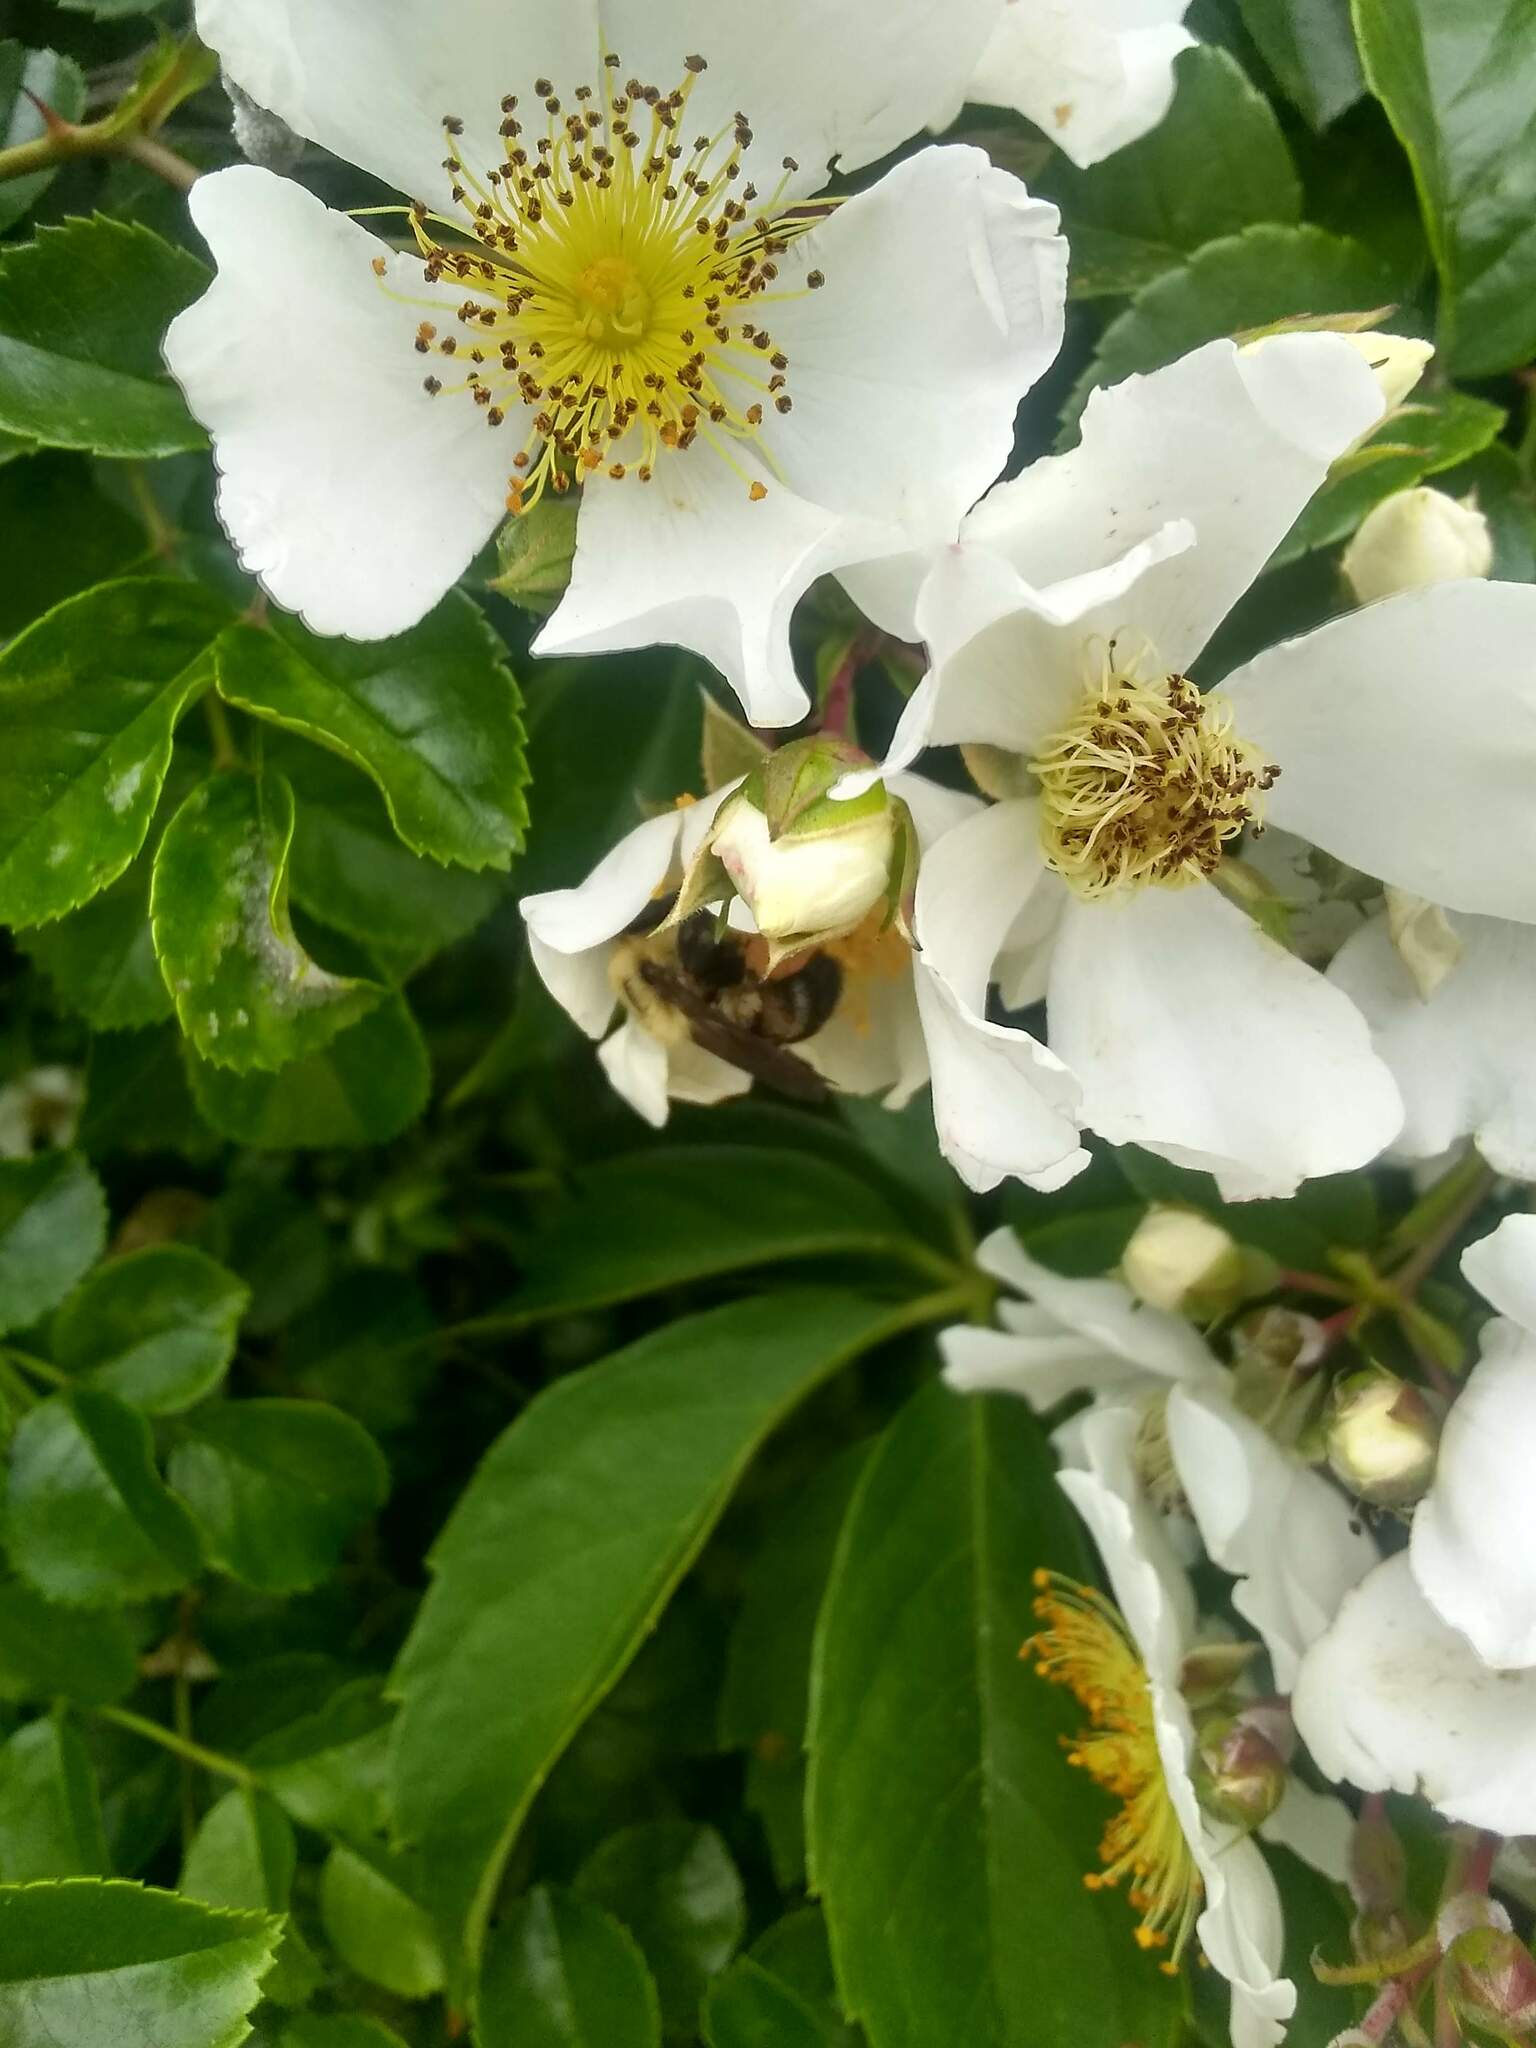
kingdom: Plantae
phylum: Tracheophyta
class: Magnoliopsida
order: Rosales
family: Rosaceae
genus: Rosa
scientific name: Rosa multiflora
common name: Multiflora rose
